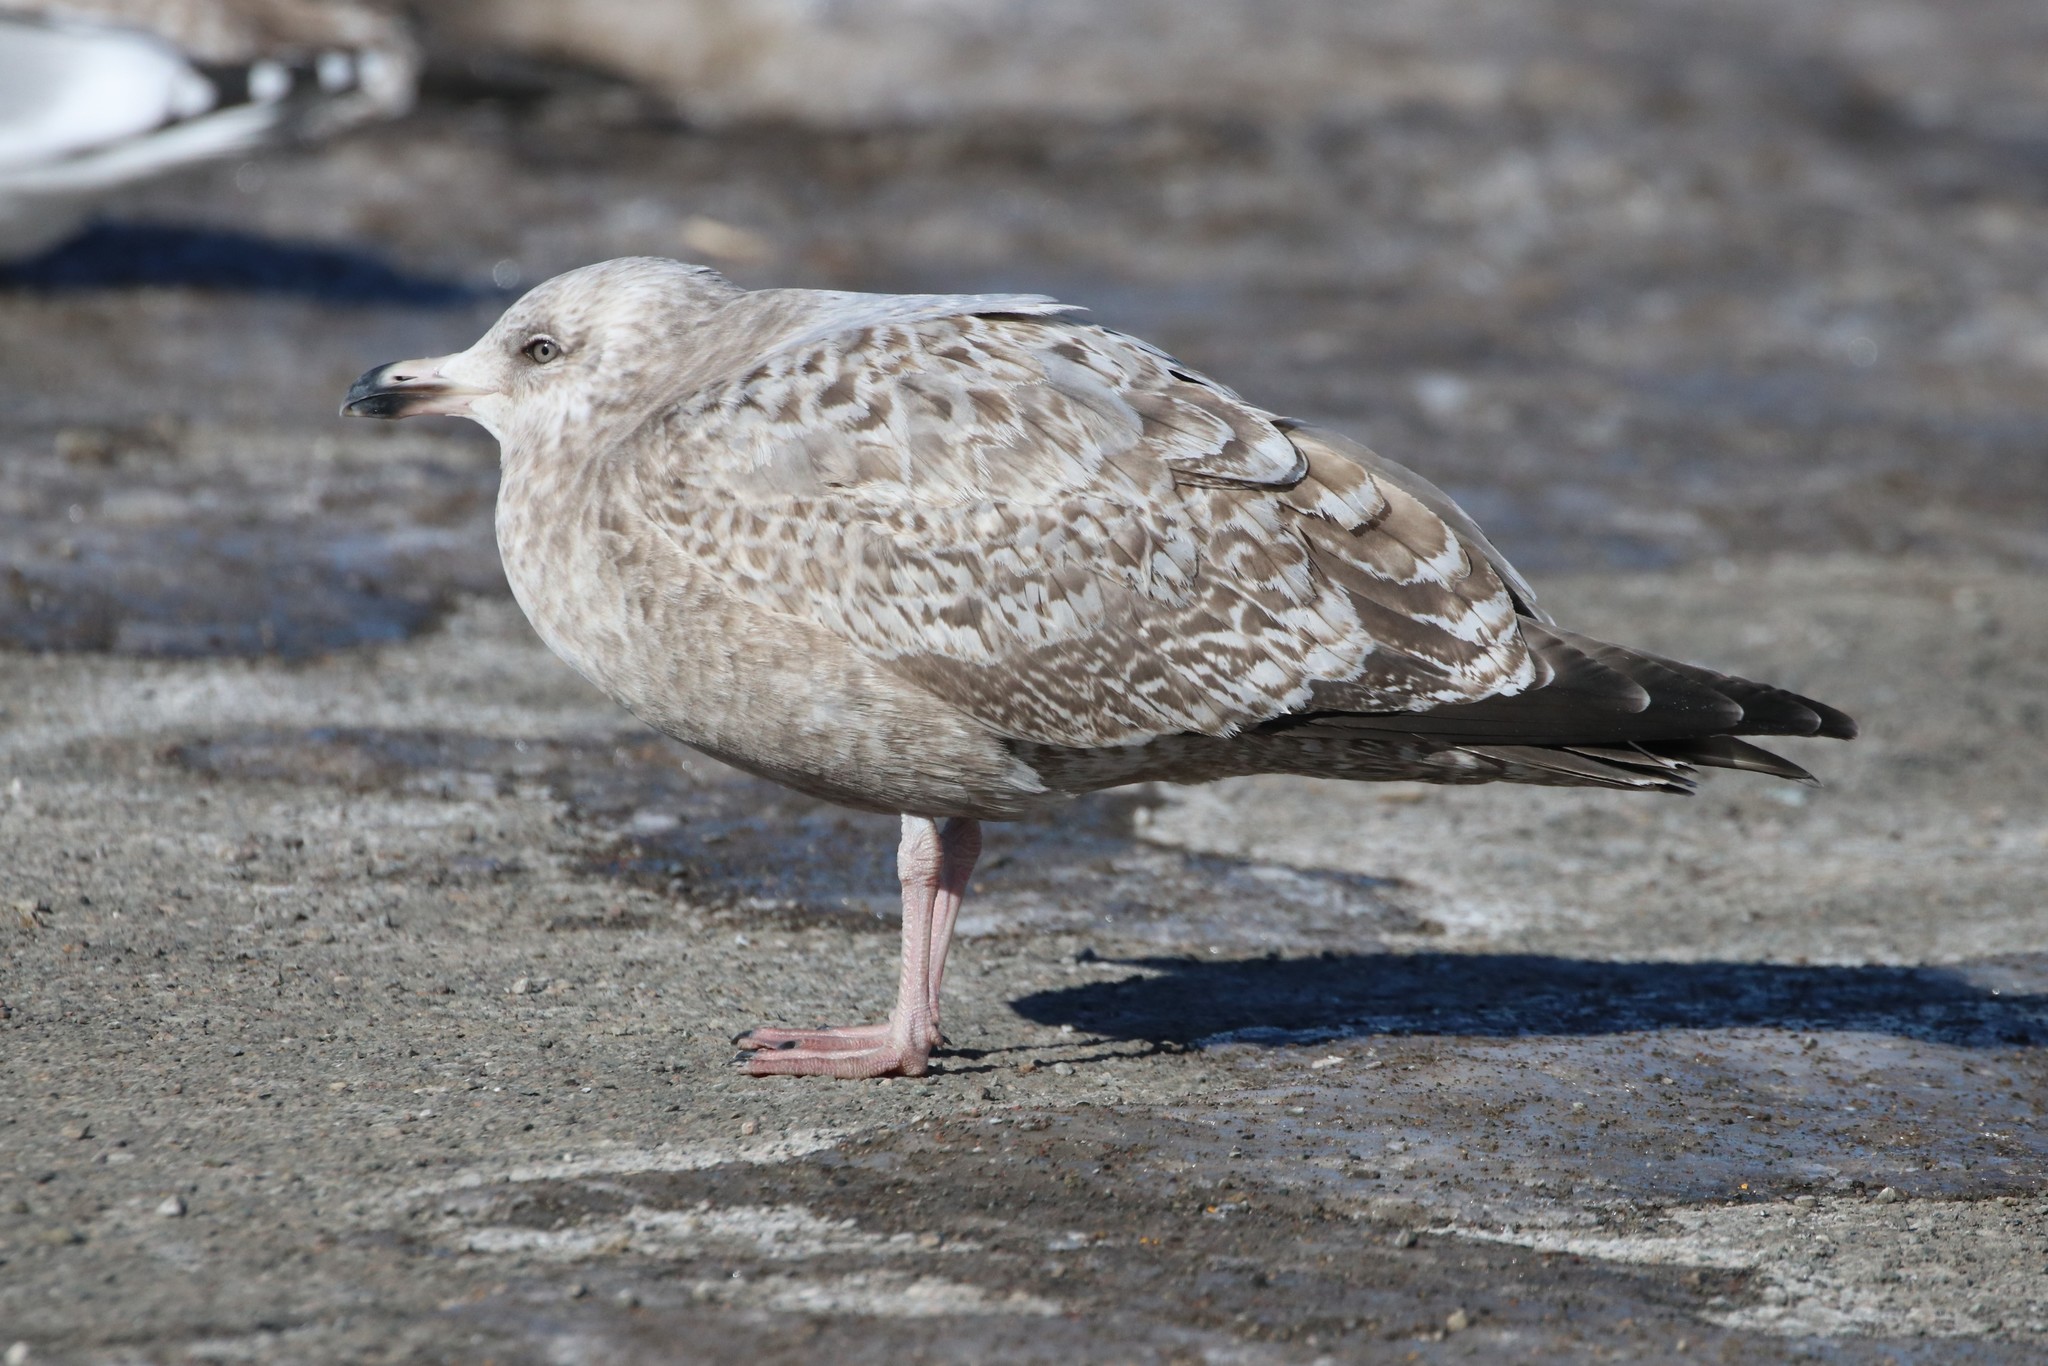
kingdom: Animalia
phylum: Chordata
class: Aves
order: Charadriiformes
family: Laridae
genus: Larus
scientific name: Larus argentatus
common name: Herring gull
